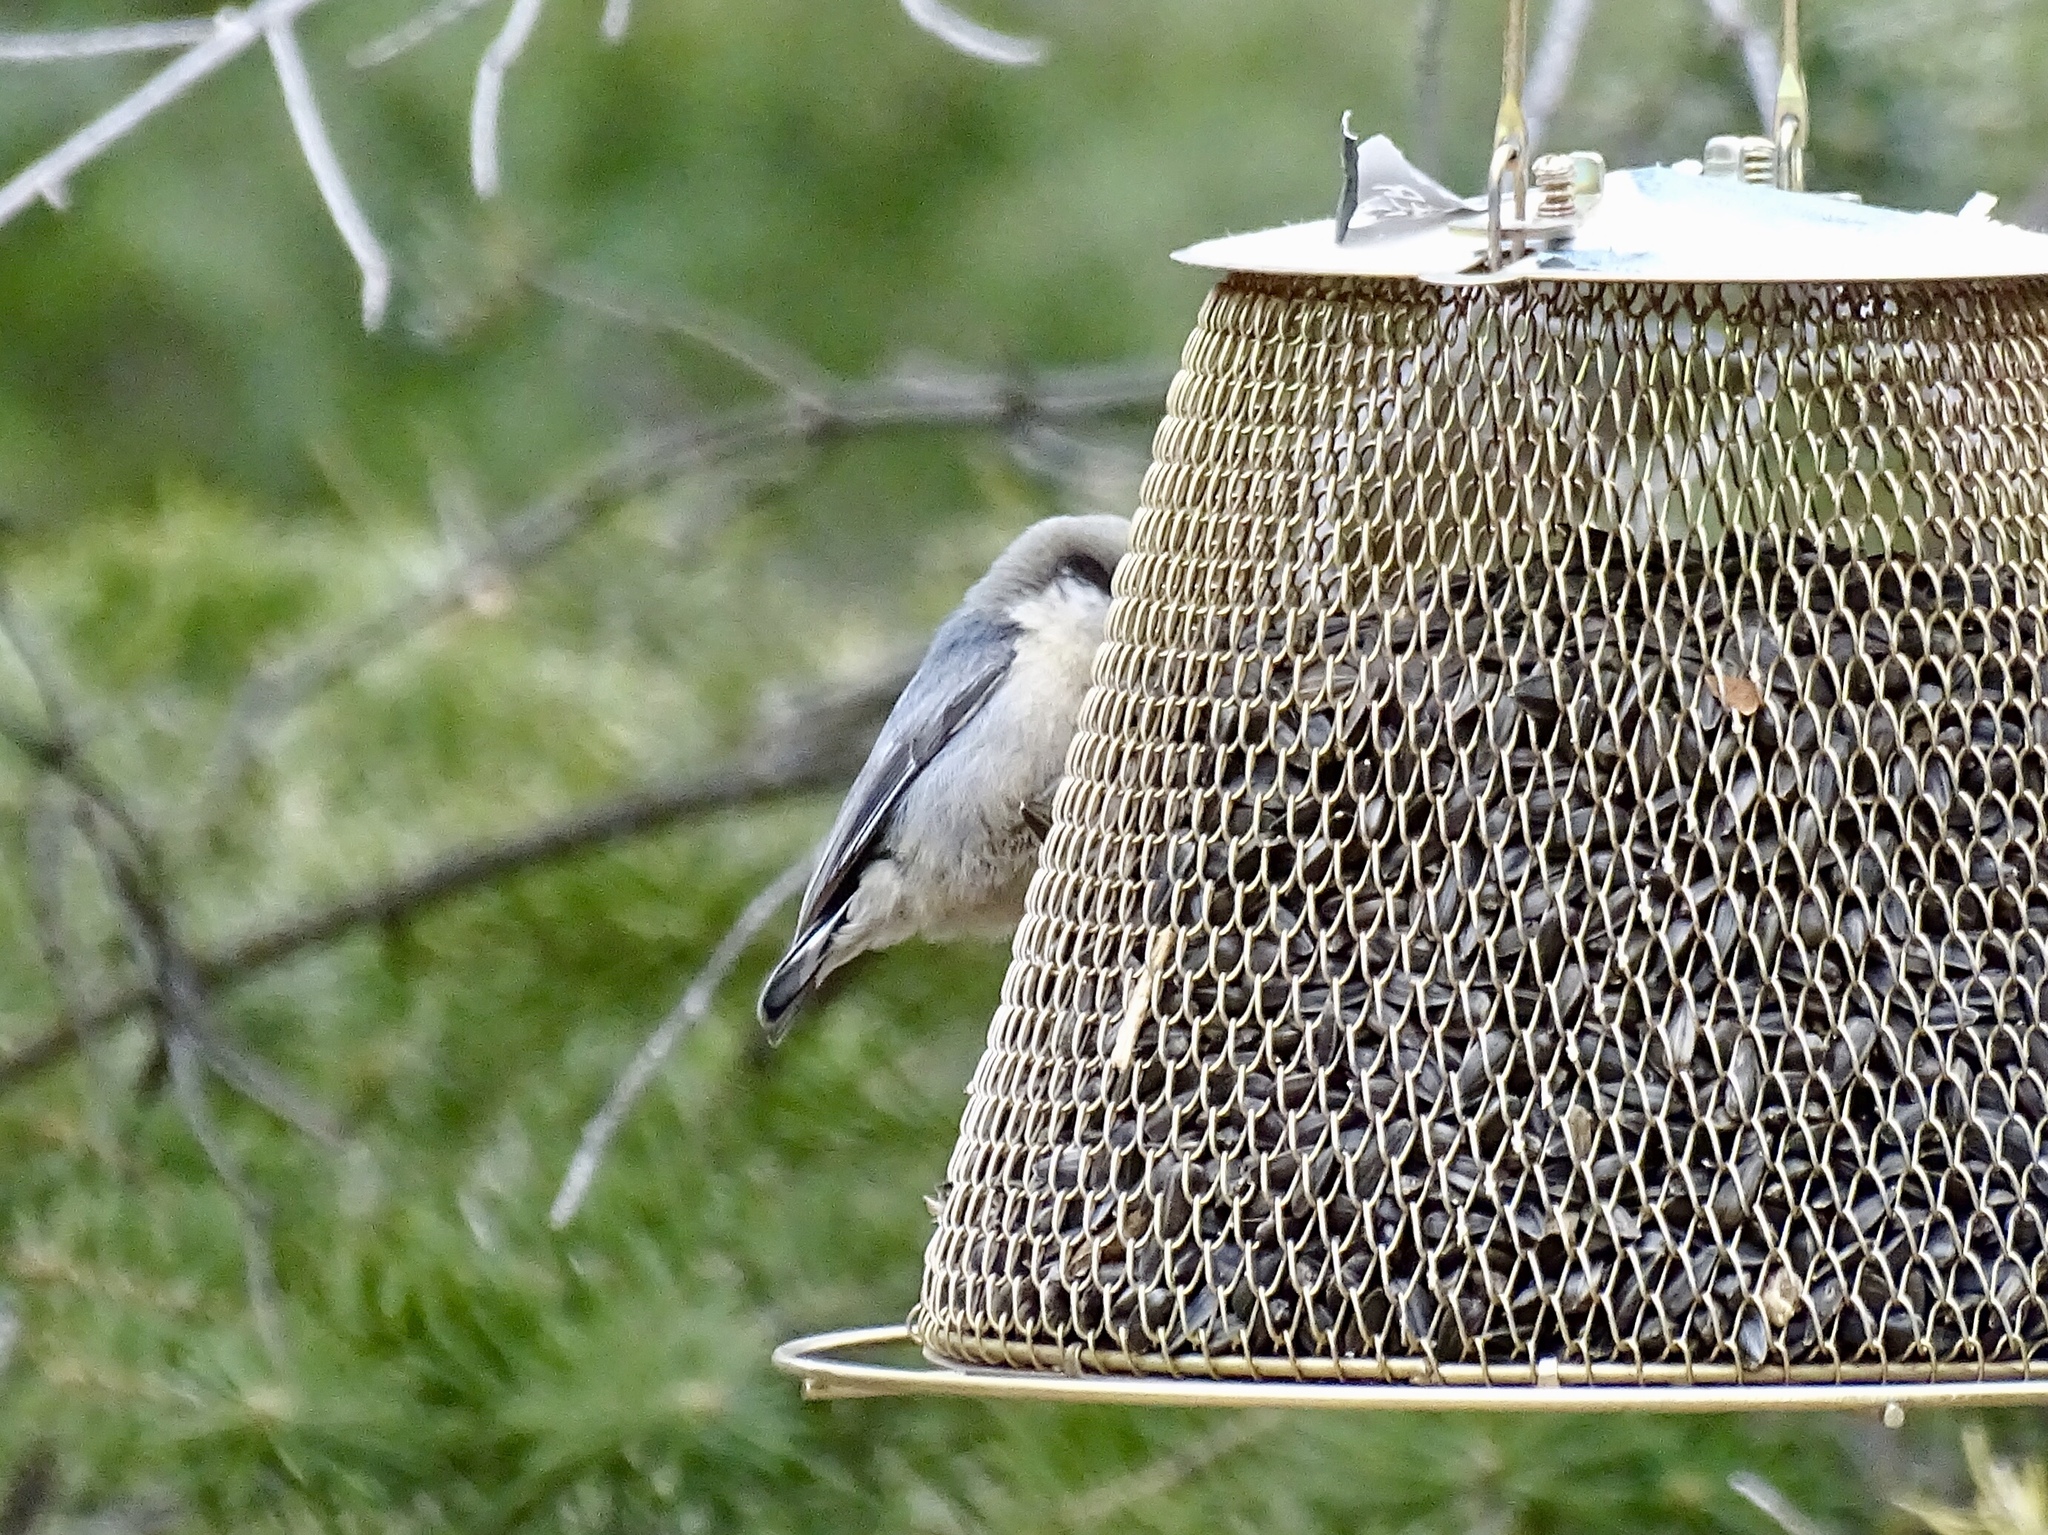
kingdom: Animalia
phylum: Chordata
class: Aves
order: Passeriformes
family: Sittidae
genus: Sitta
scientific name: Sitta pygmaea
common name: Pygmy nuthatch
